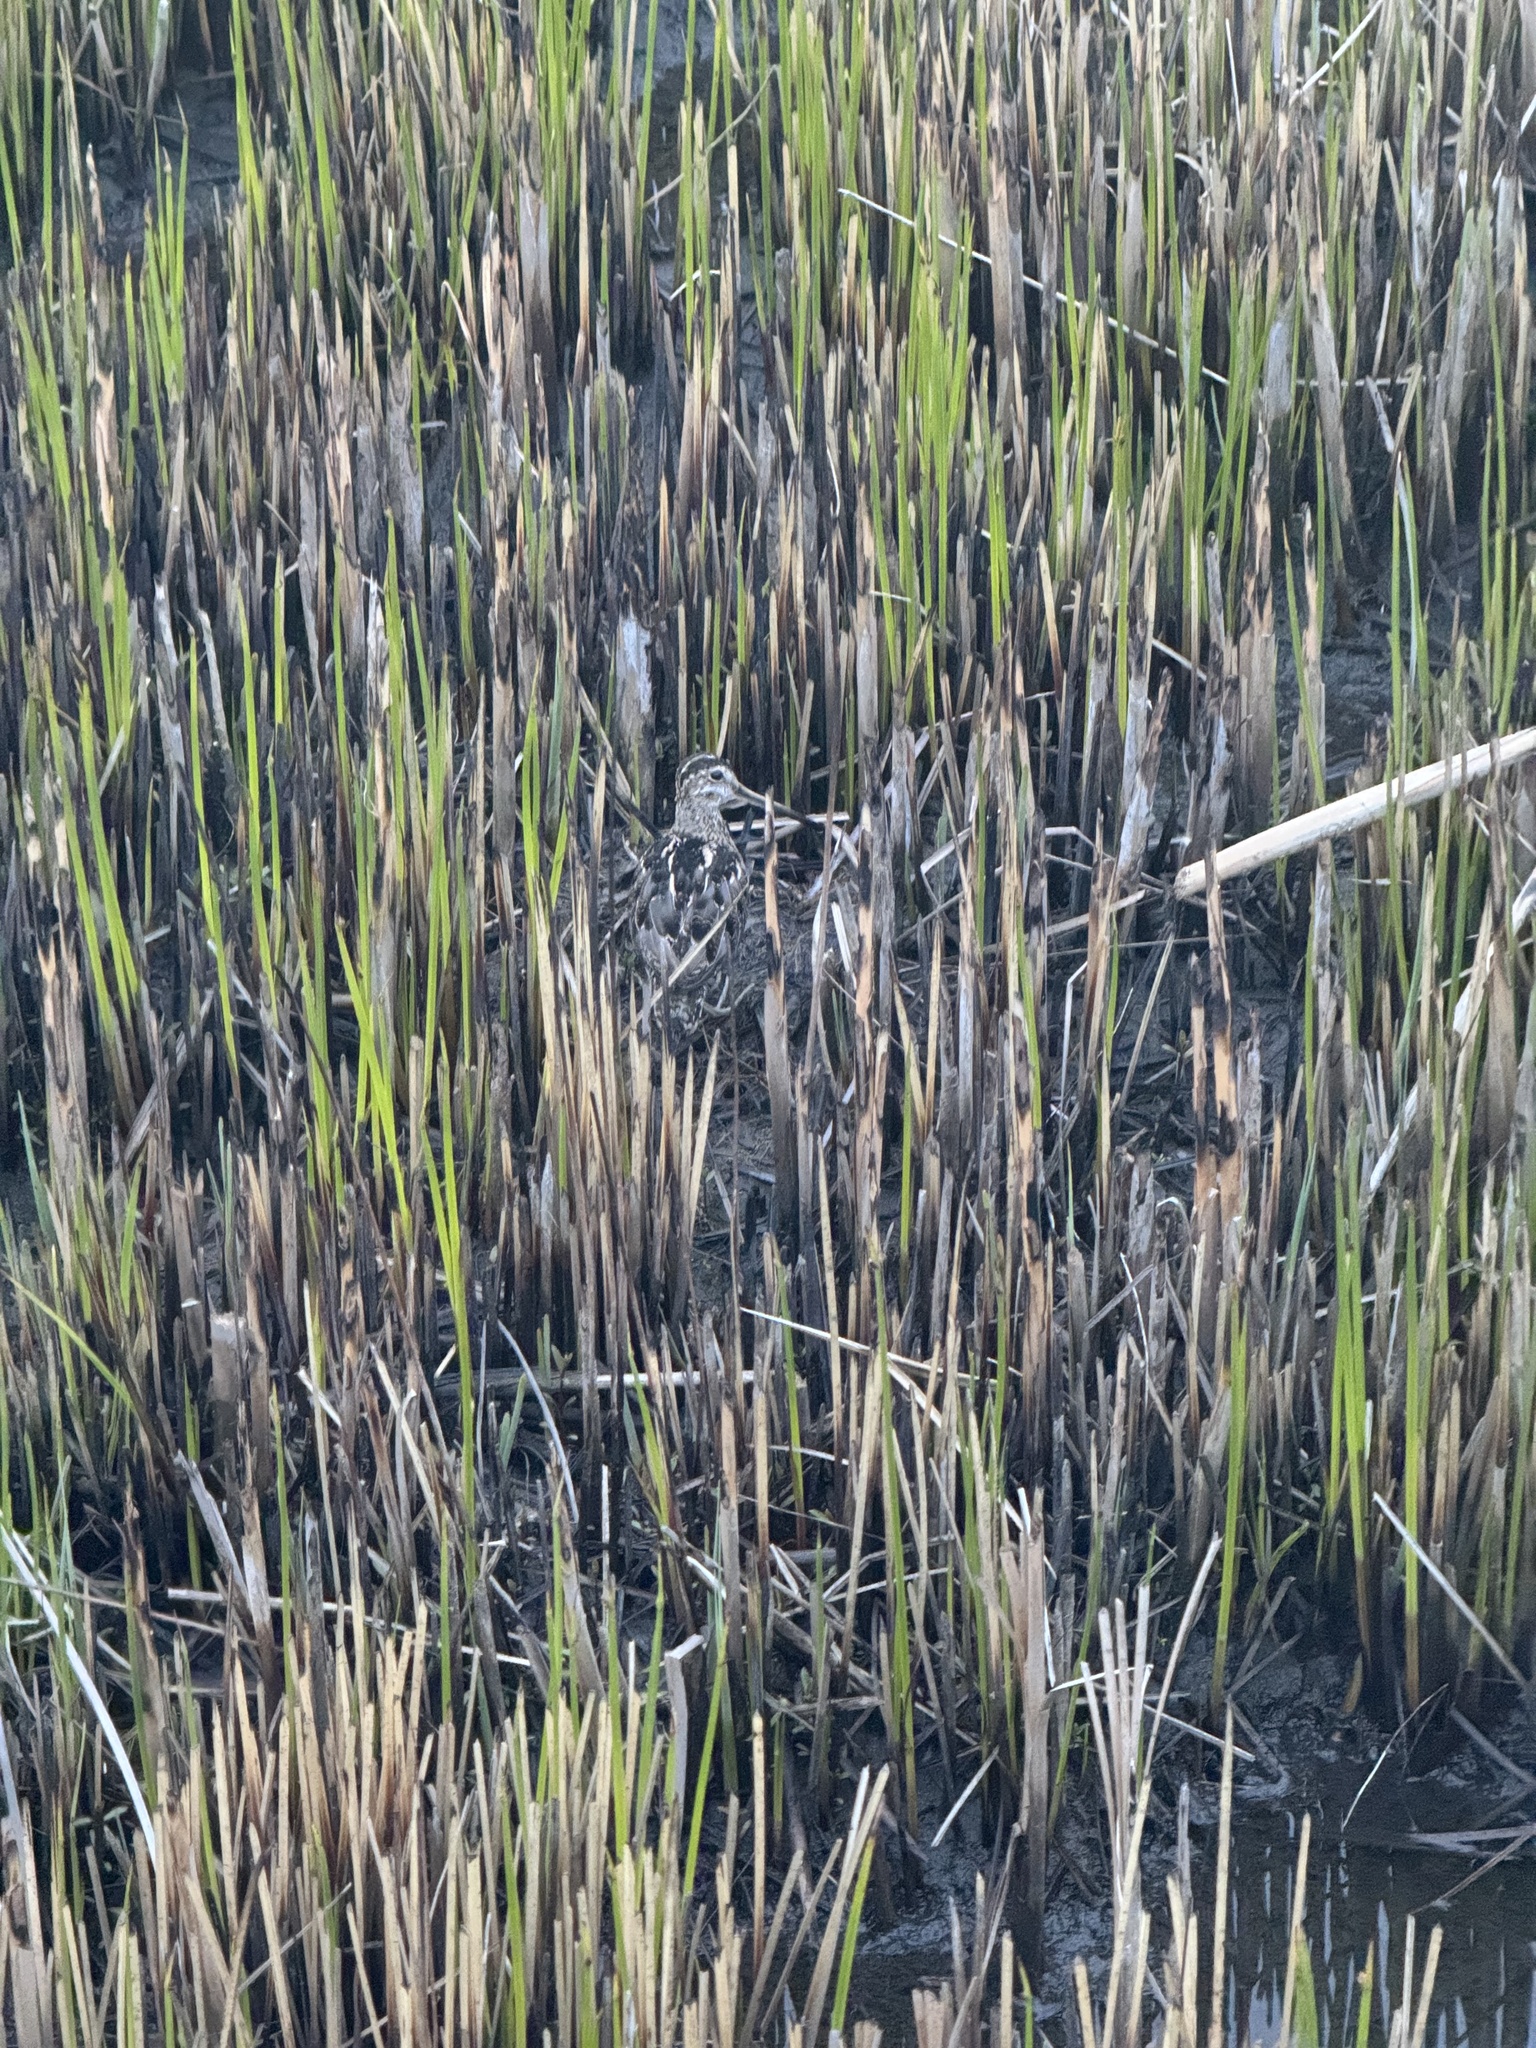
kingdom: Animalia
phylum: Chordata
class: Aves
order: Charadriiformes
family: Scolopacidae
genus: Gallinago
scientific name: Gallinago delicata
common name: Wilson's snipe
